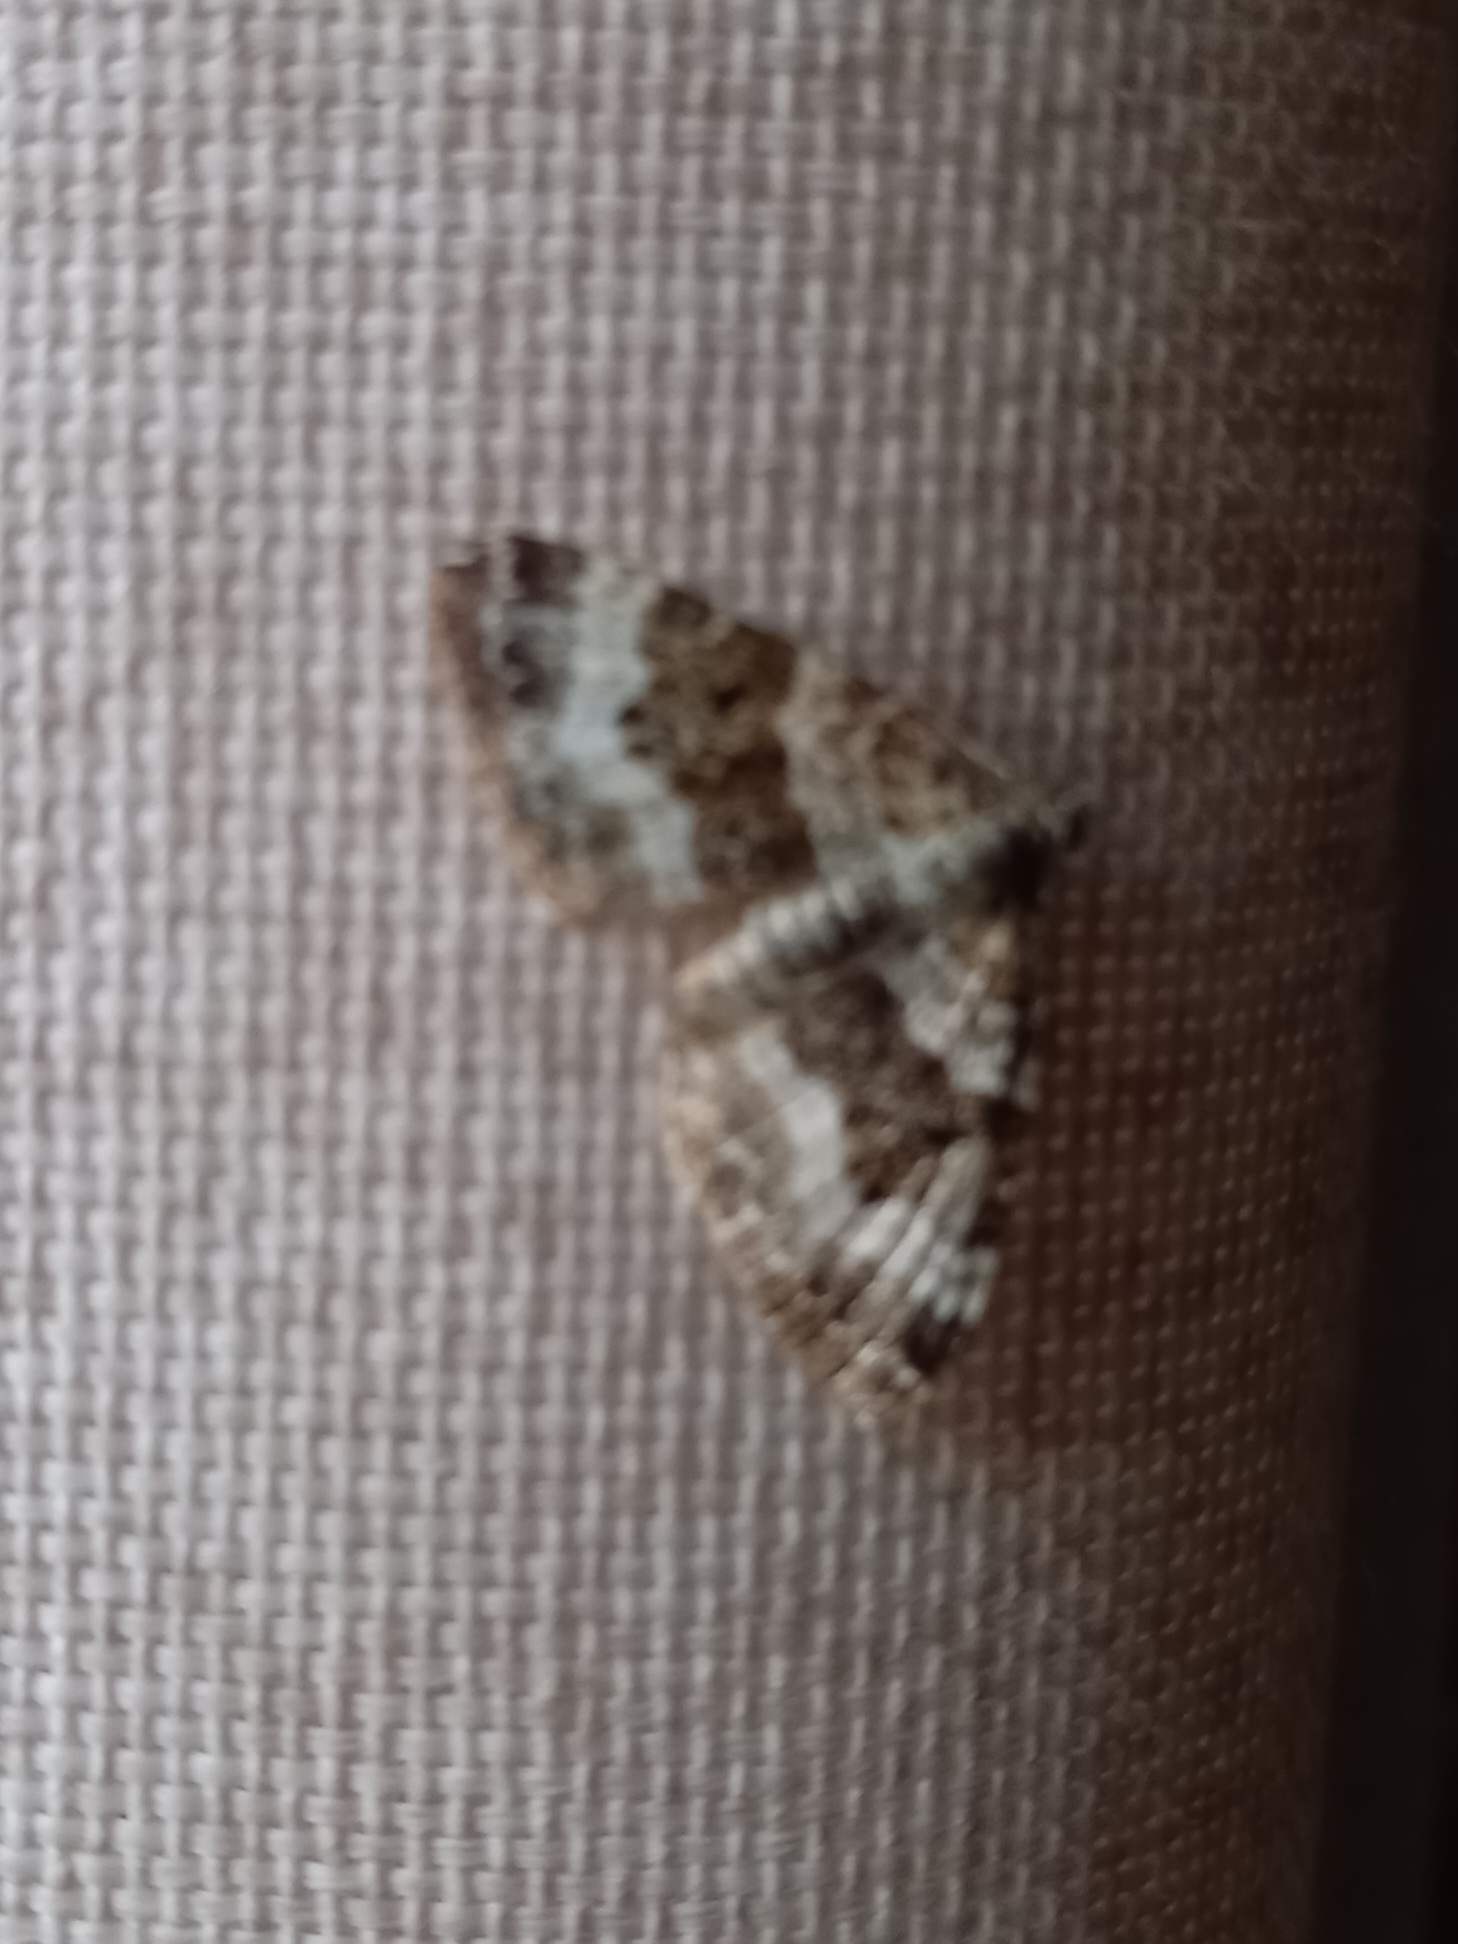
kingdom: Animalia
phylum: Arthropoda
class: Insecta
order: Lepidoptera
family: Geometridae
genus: Epirrhoe
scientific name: Epirrhoe alternata
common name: Common carpet
